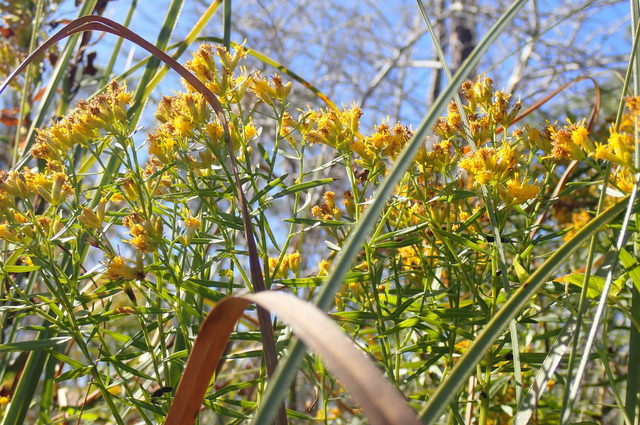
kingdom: Plantae
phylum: Tracheophyta
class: Magnoliopsida
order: Asterales
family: Asteraceae
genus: Euthamia
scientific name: Euthamia weakleyi
